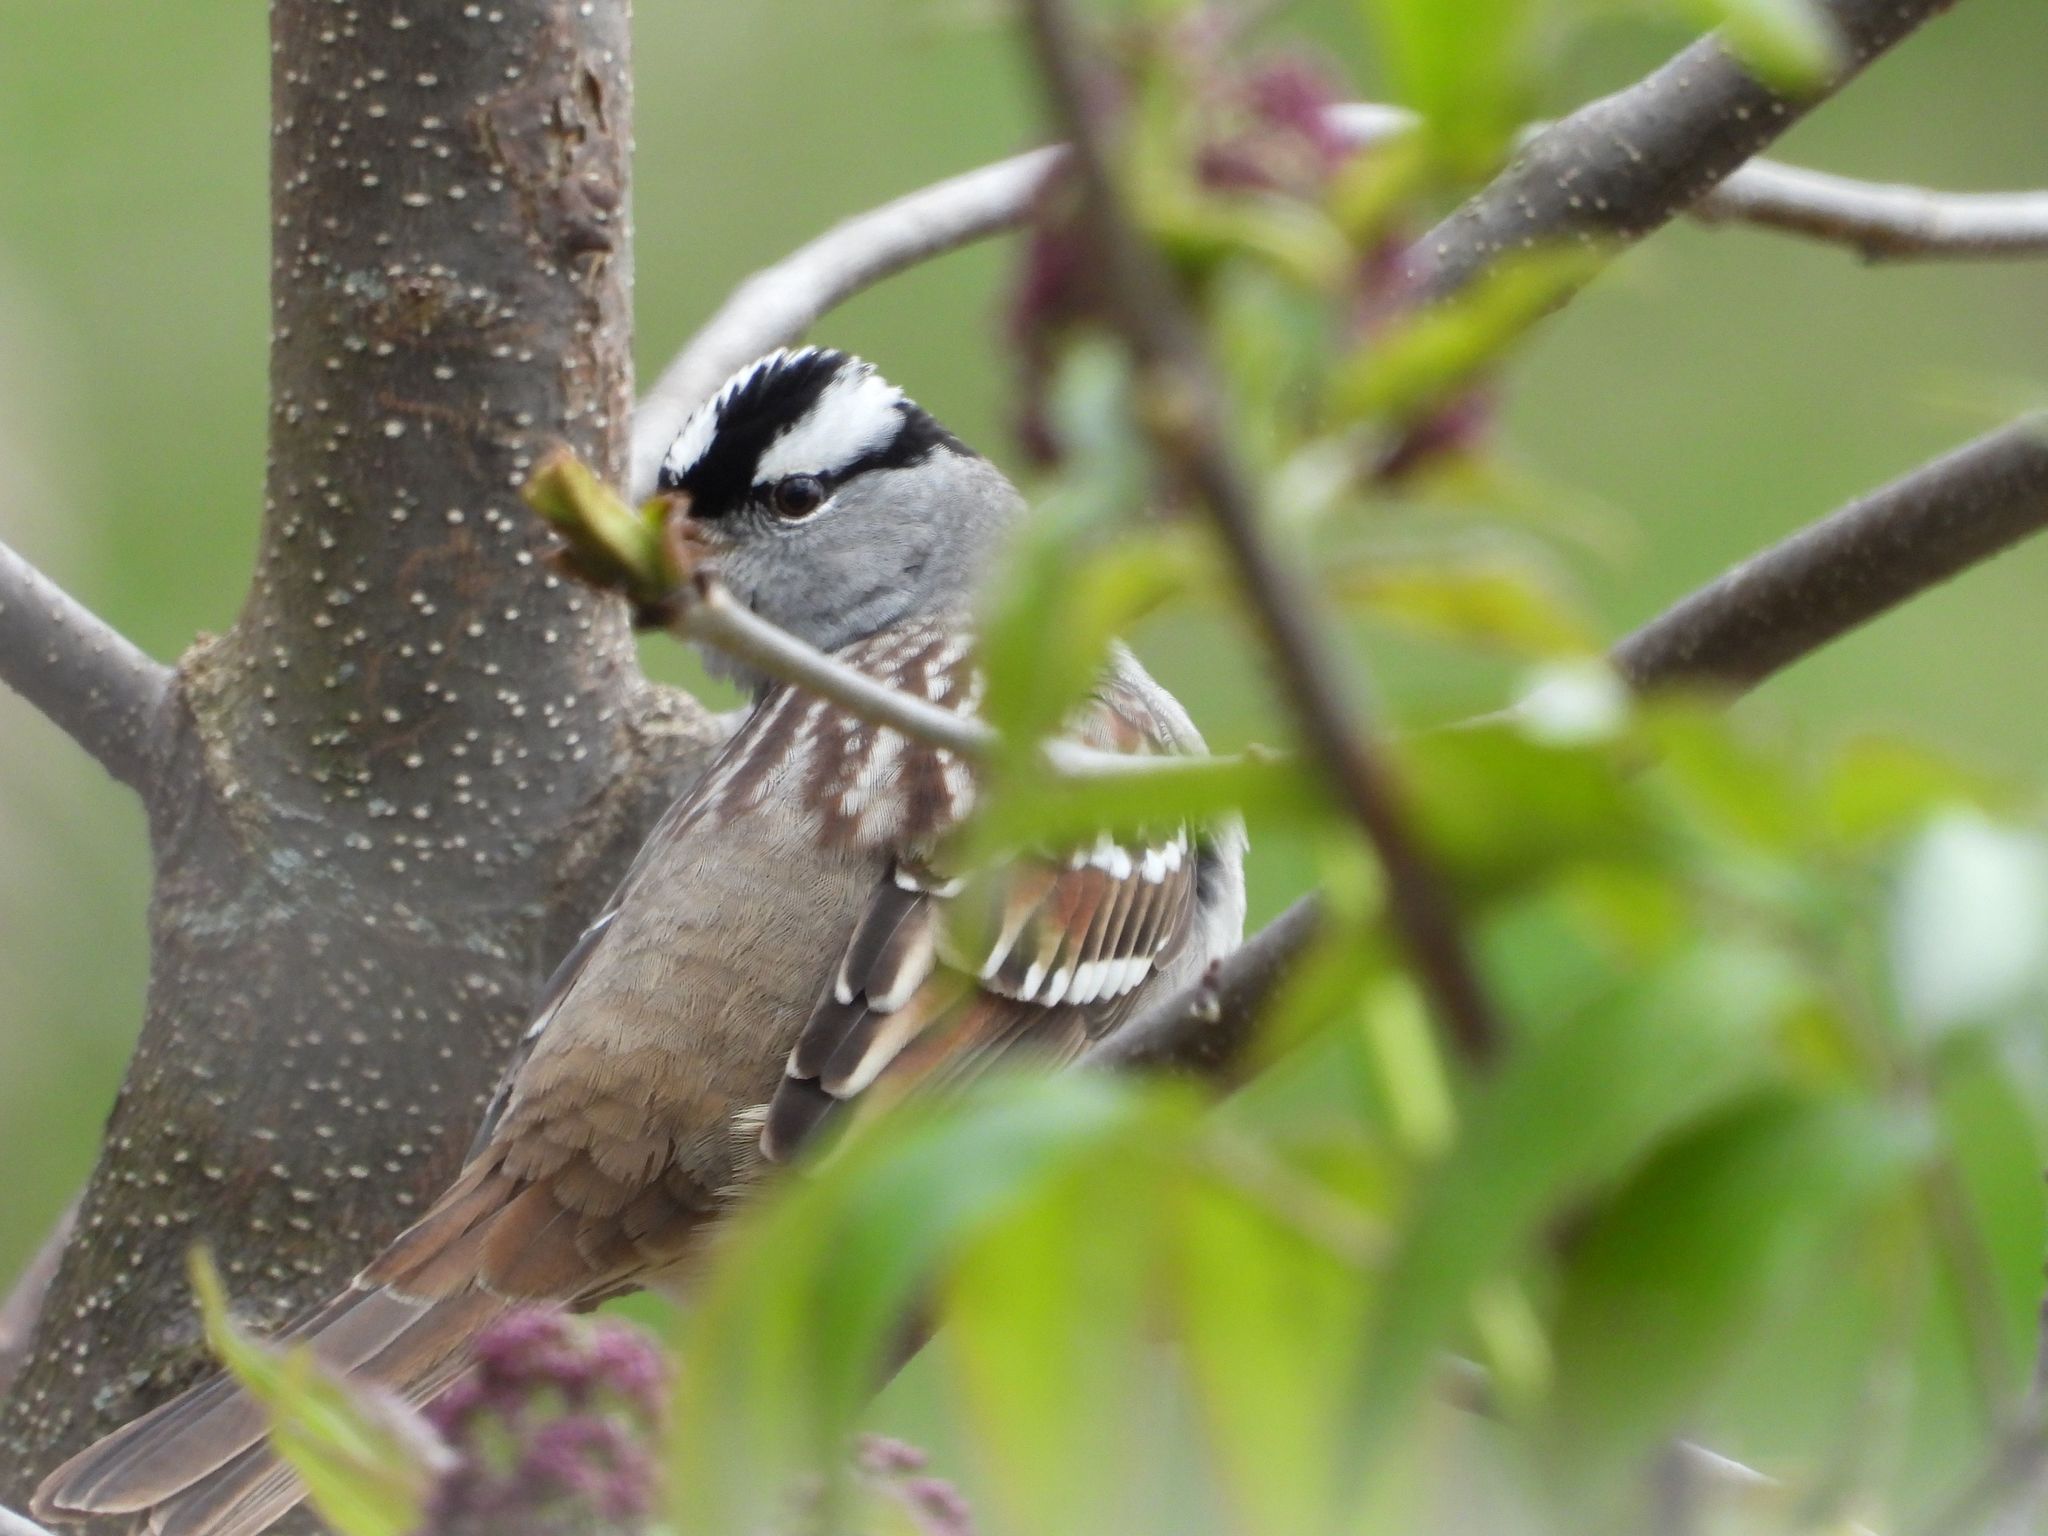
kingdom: Animalia
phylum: Chordata
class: Aves
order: Passeriformes
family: Passerellidae
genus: Zonotrichia
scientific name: Zonotrichia leucophrys
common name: White-crowned sparrow
